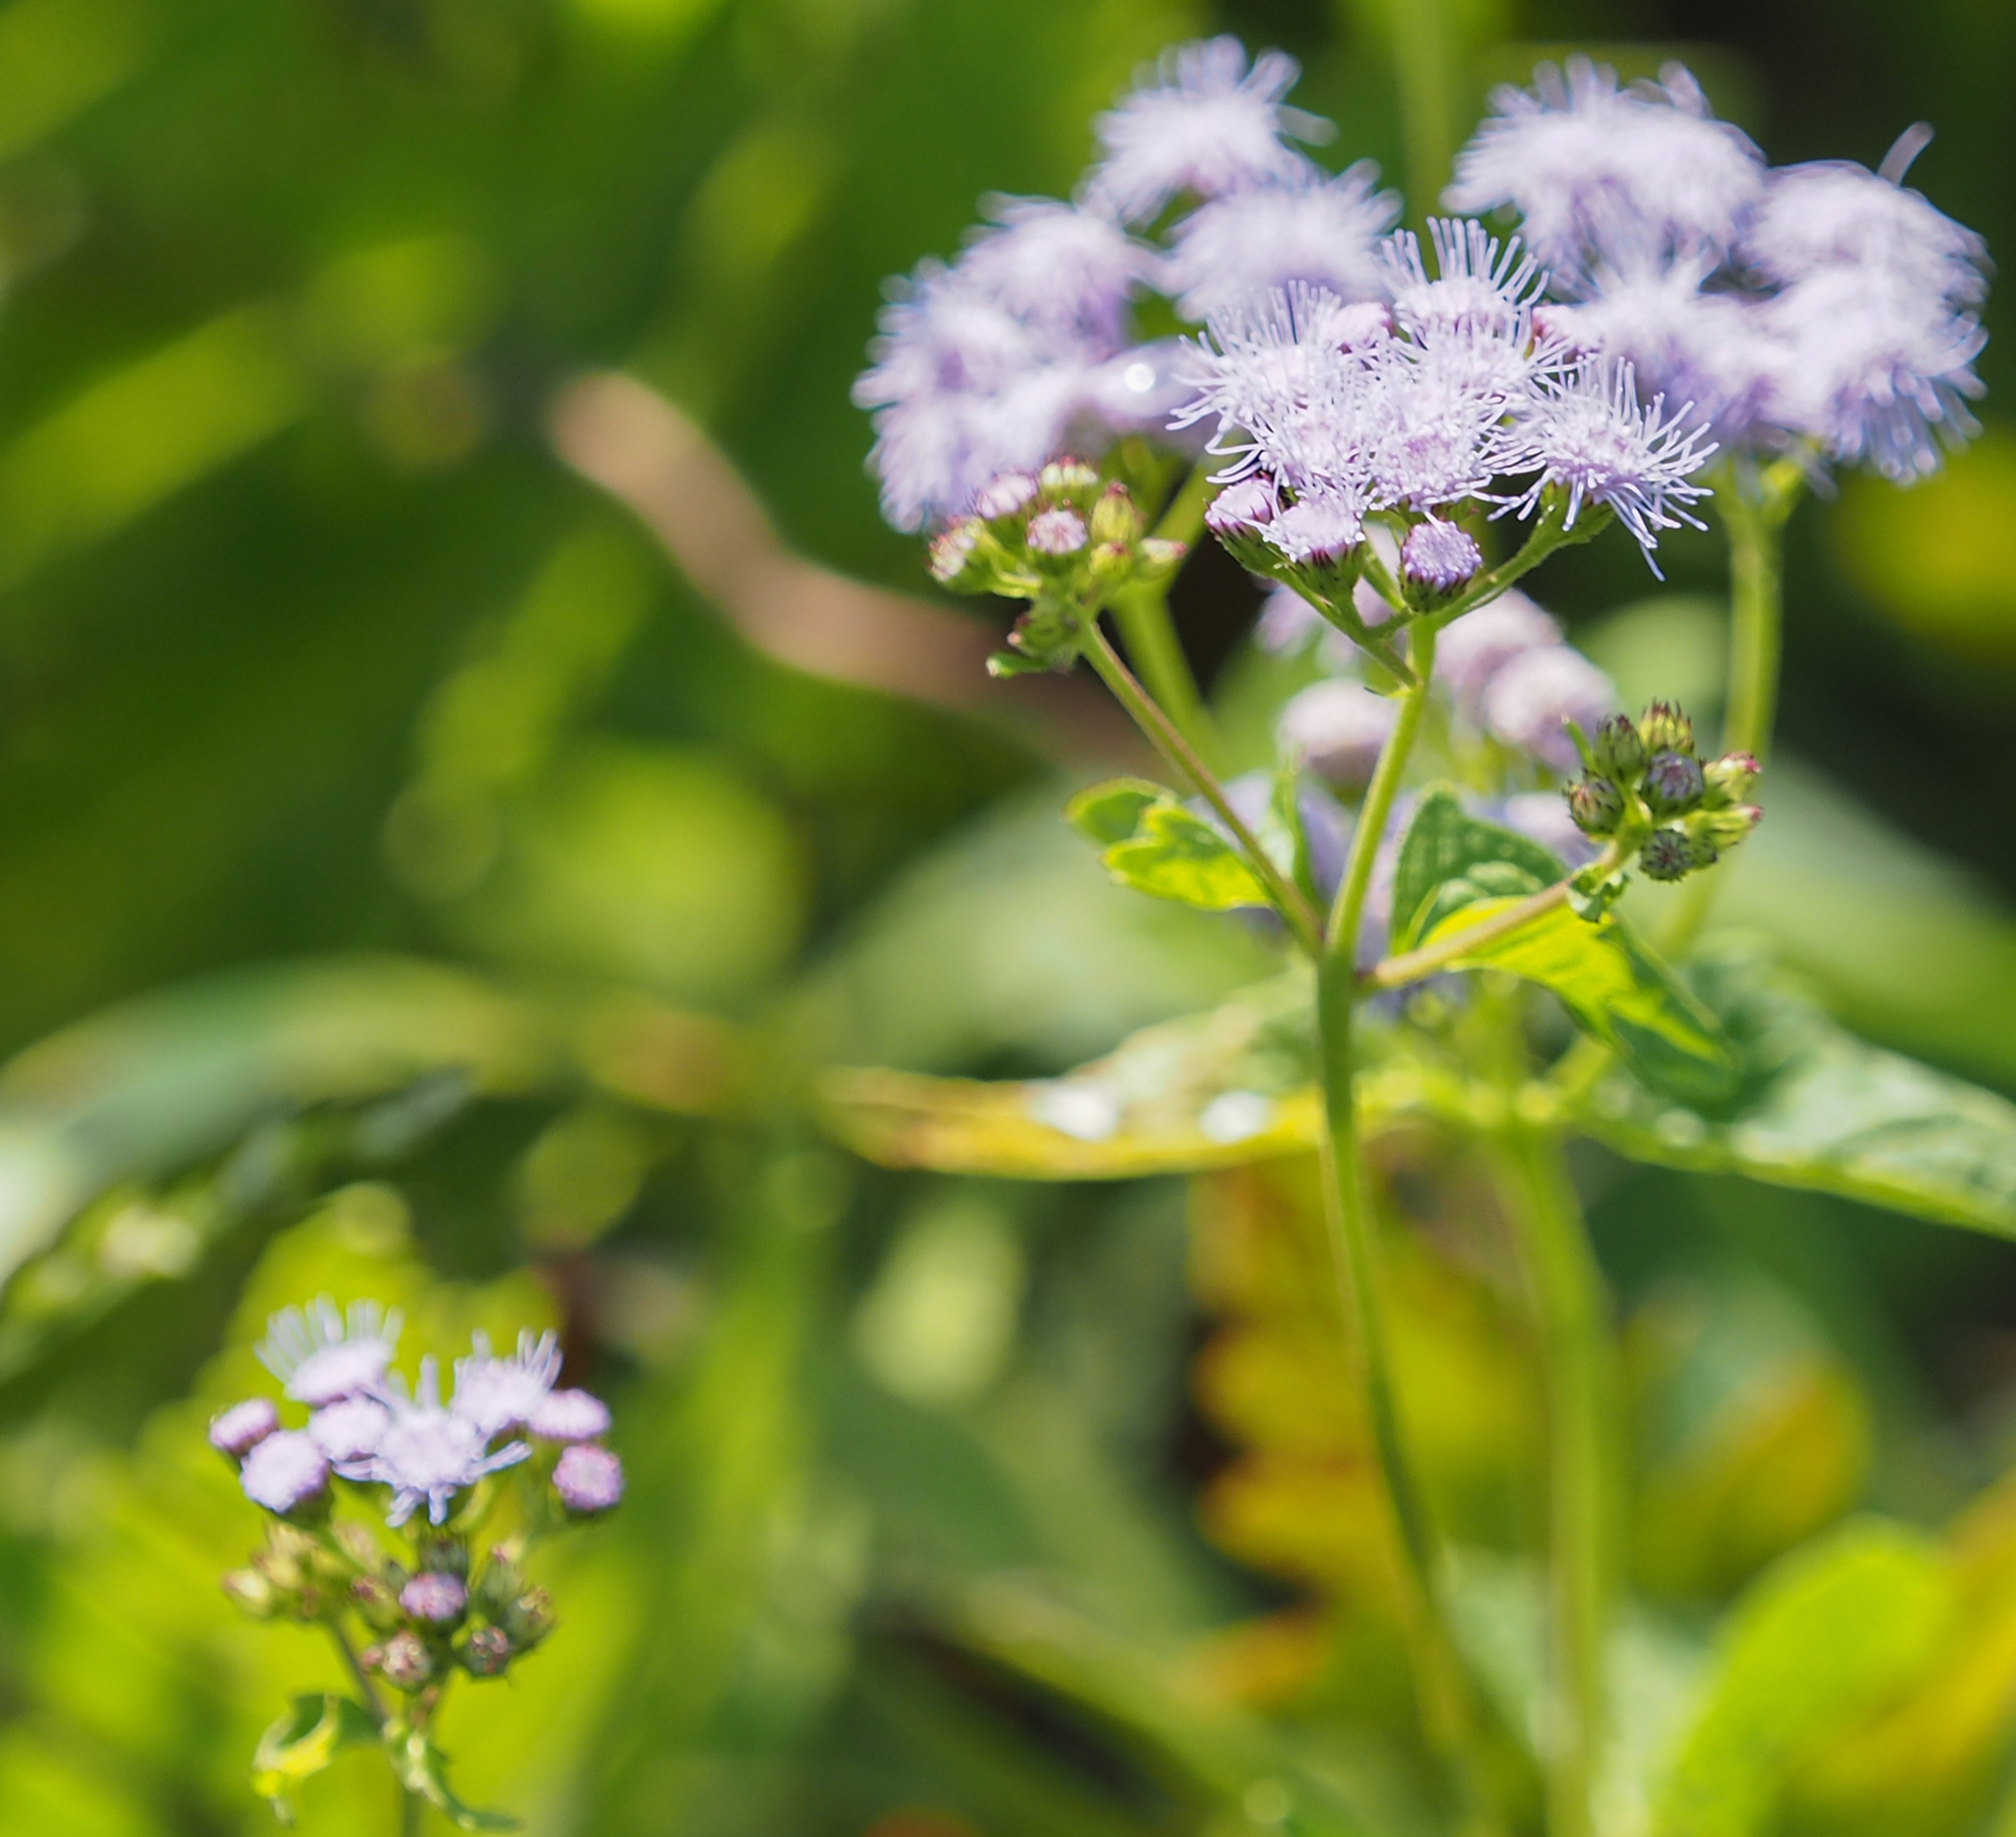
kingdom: Plantae
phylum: Tracheophyta
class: Magnoliopsida
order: Asterales
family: Asteraceae
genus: Conoclinium
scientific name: Conoclinium coelestinum
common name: Blue mistflower
